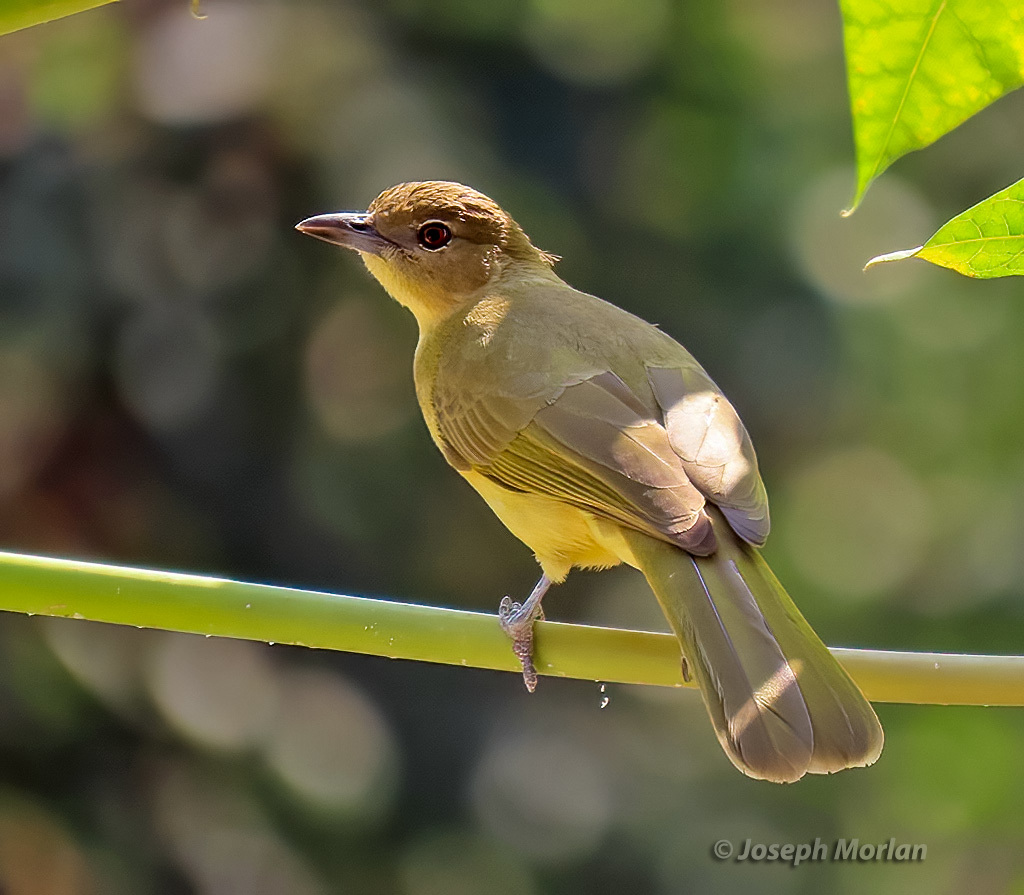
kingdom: Animalia
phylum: Chordata
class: Aves
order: Passeriformes
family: Pycnonotidae
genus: Chlorocichla
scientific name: Chlorocichla flaviventris
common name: Yellow-bellied greenbul
